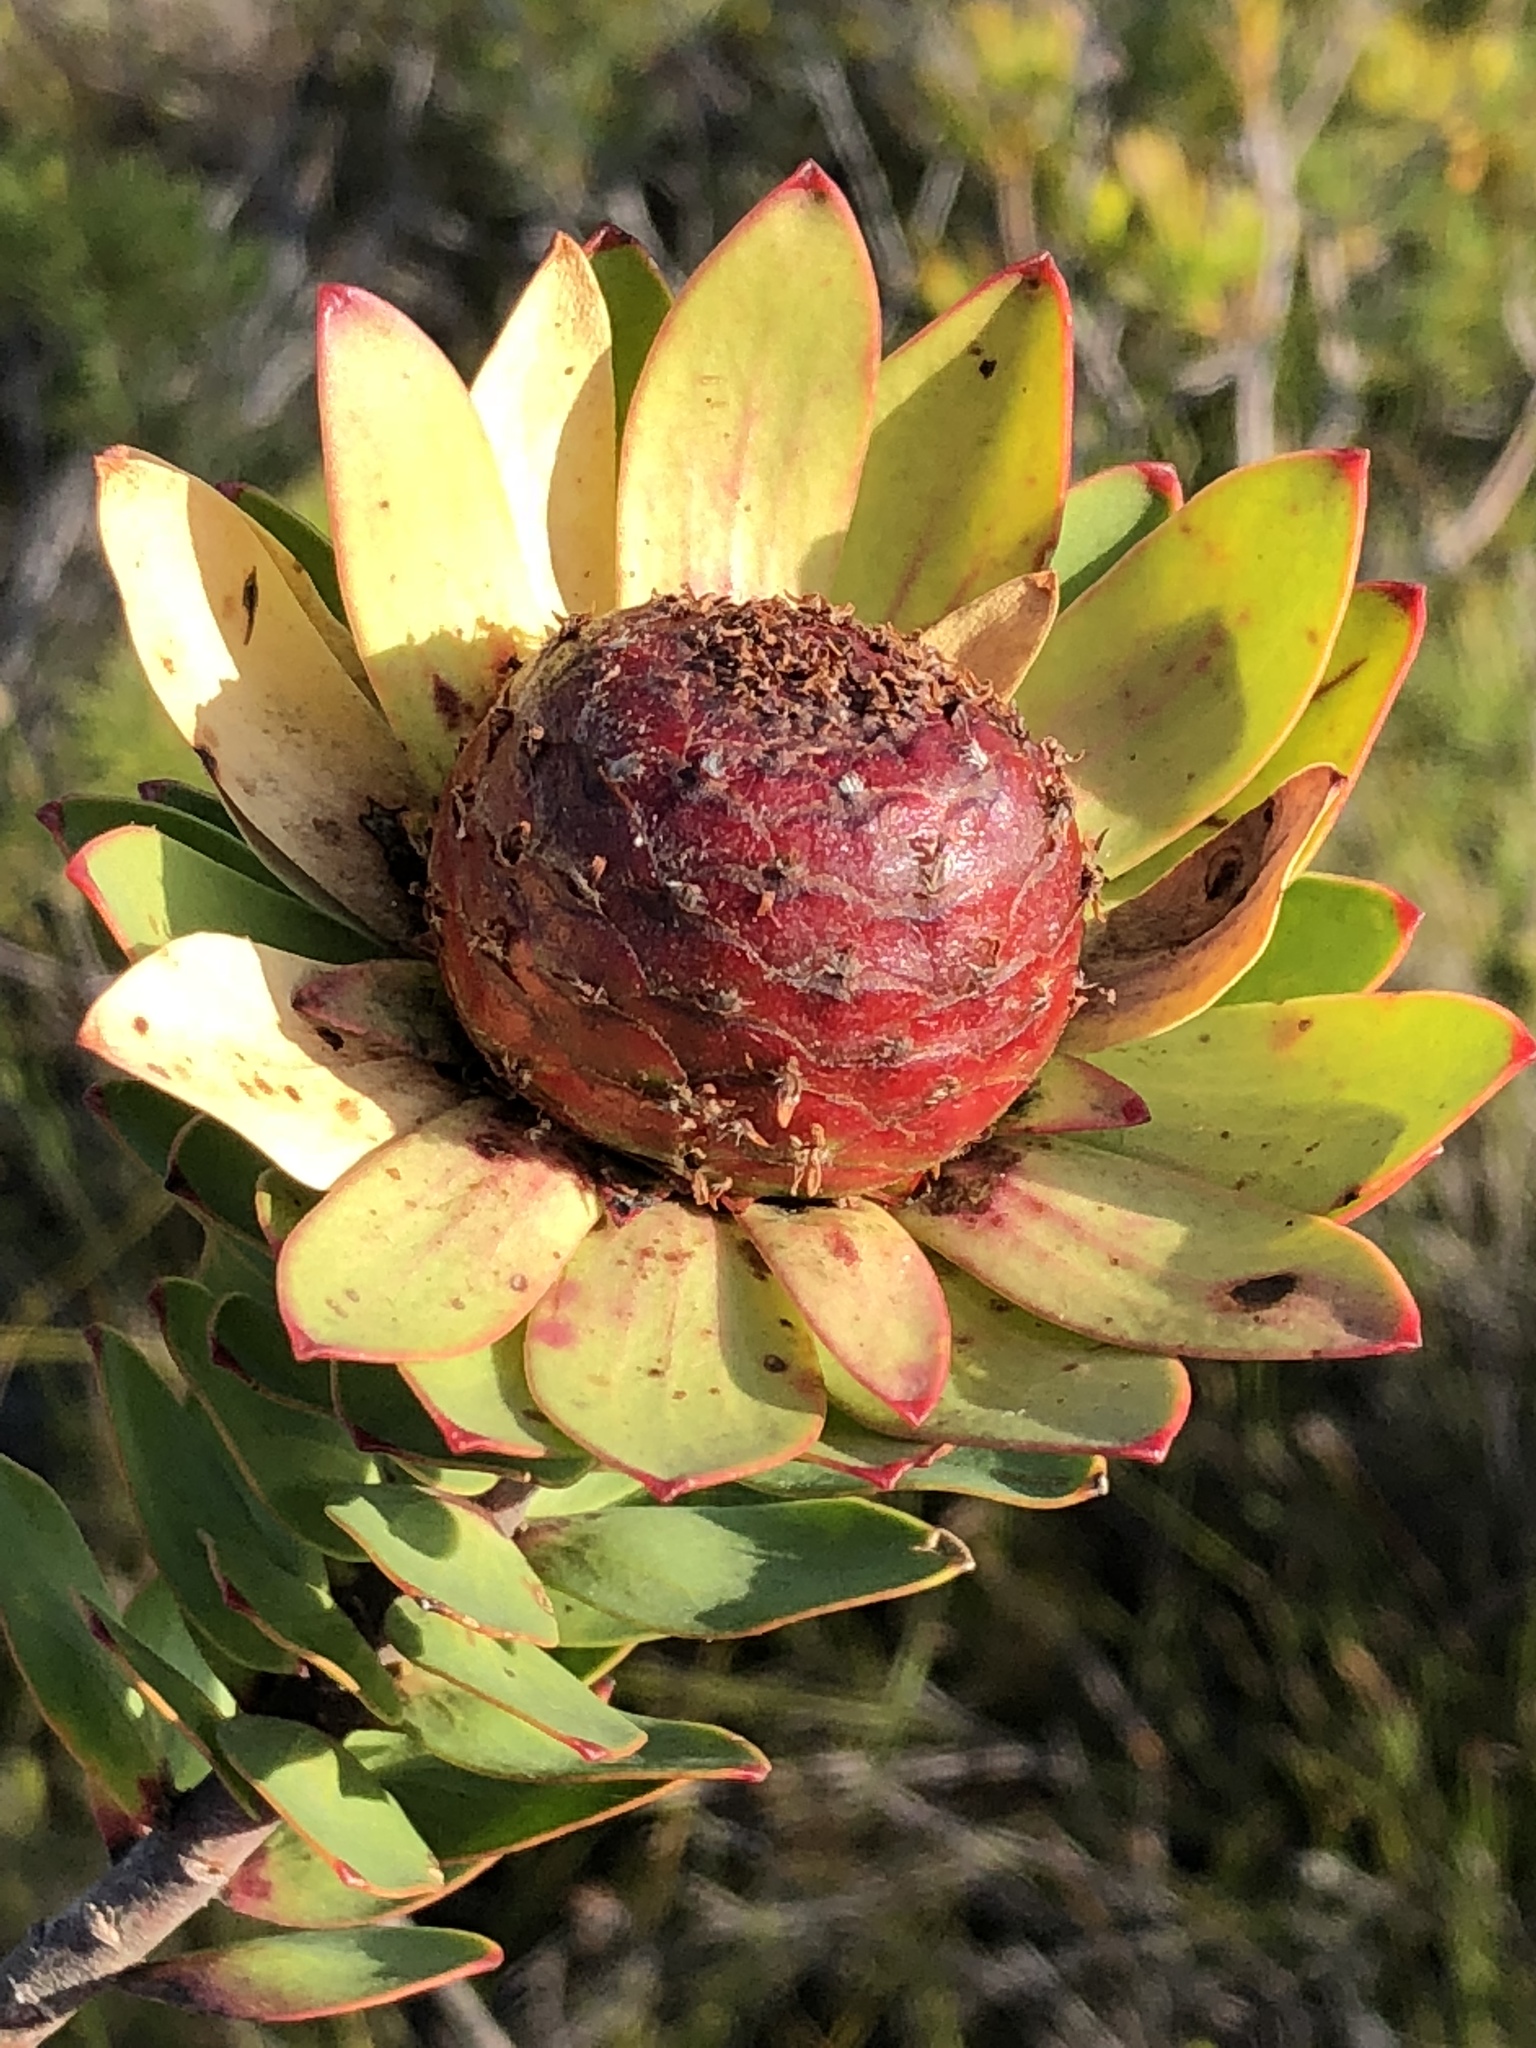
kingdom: Plantae
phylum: Tracheophyta
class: Magnoliopsida
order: Proteales
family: Proteaceae
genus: Leucadendron
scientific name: Leucadendron elimense
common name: Elim conebush
